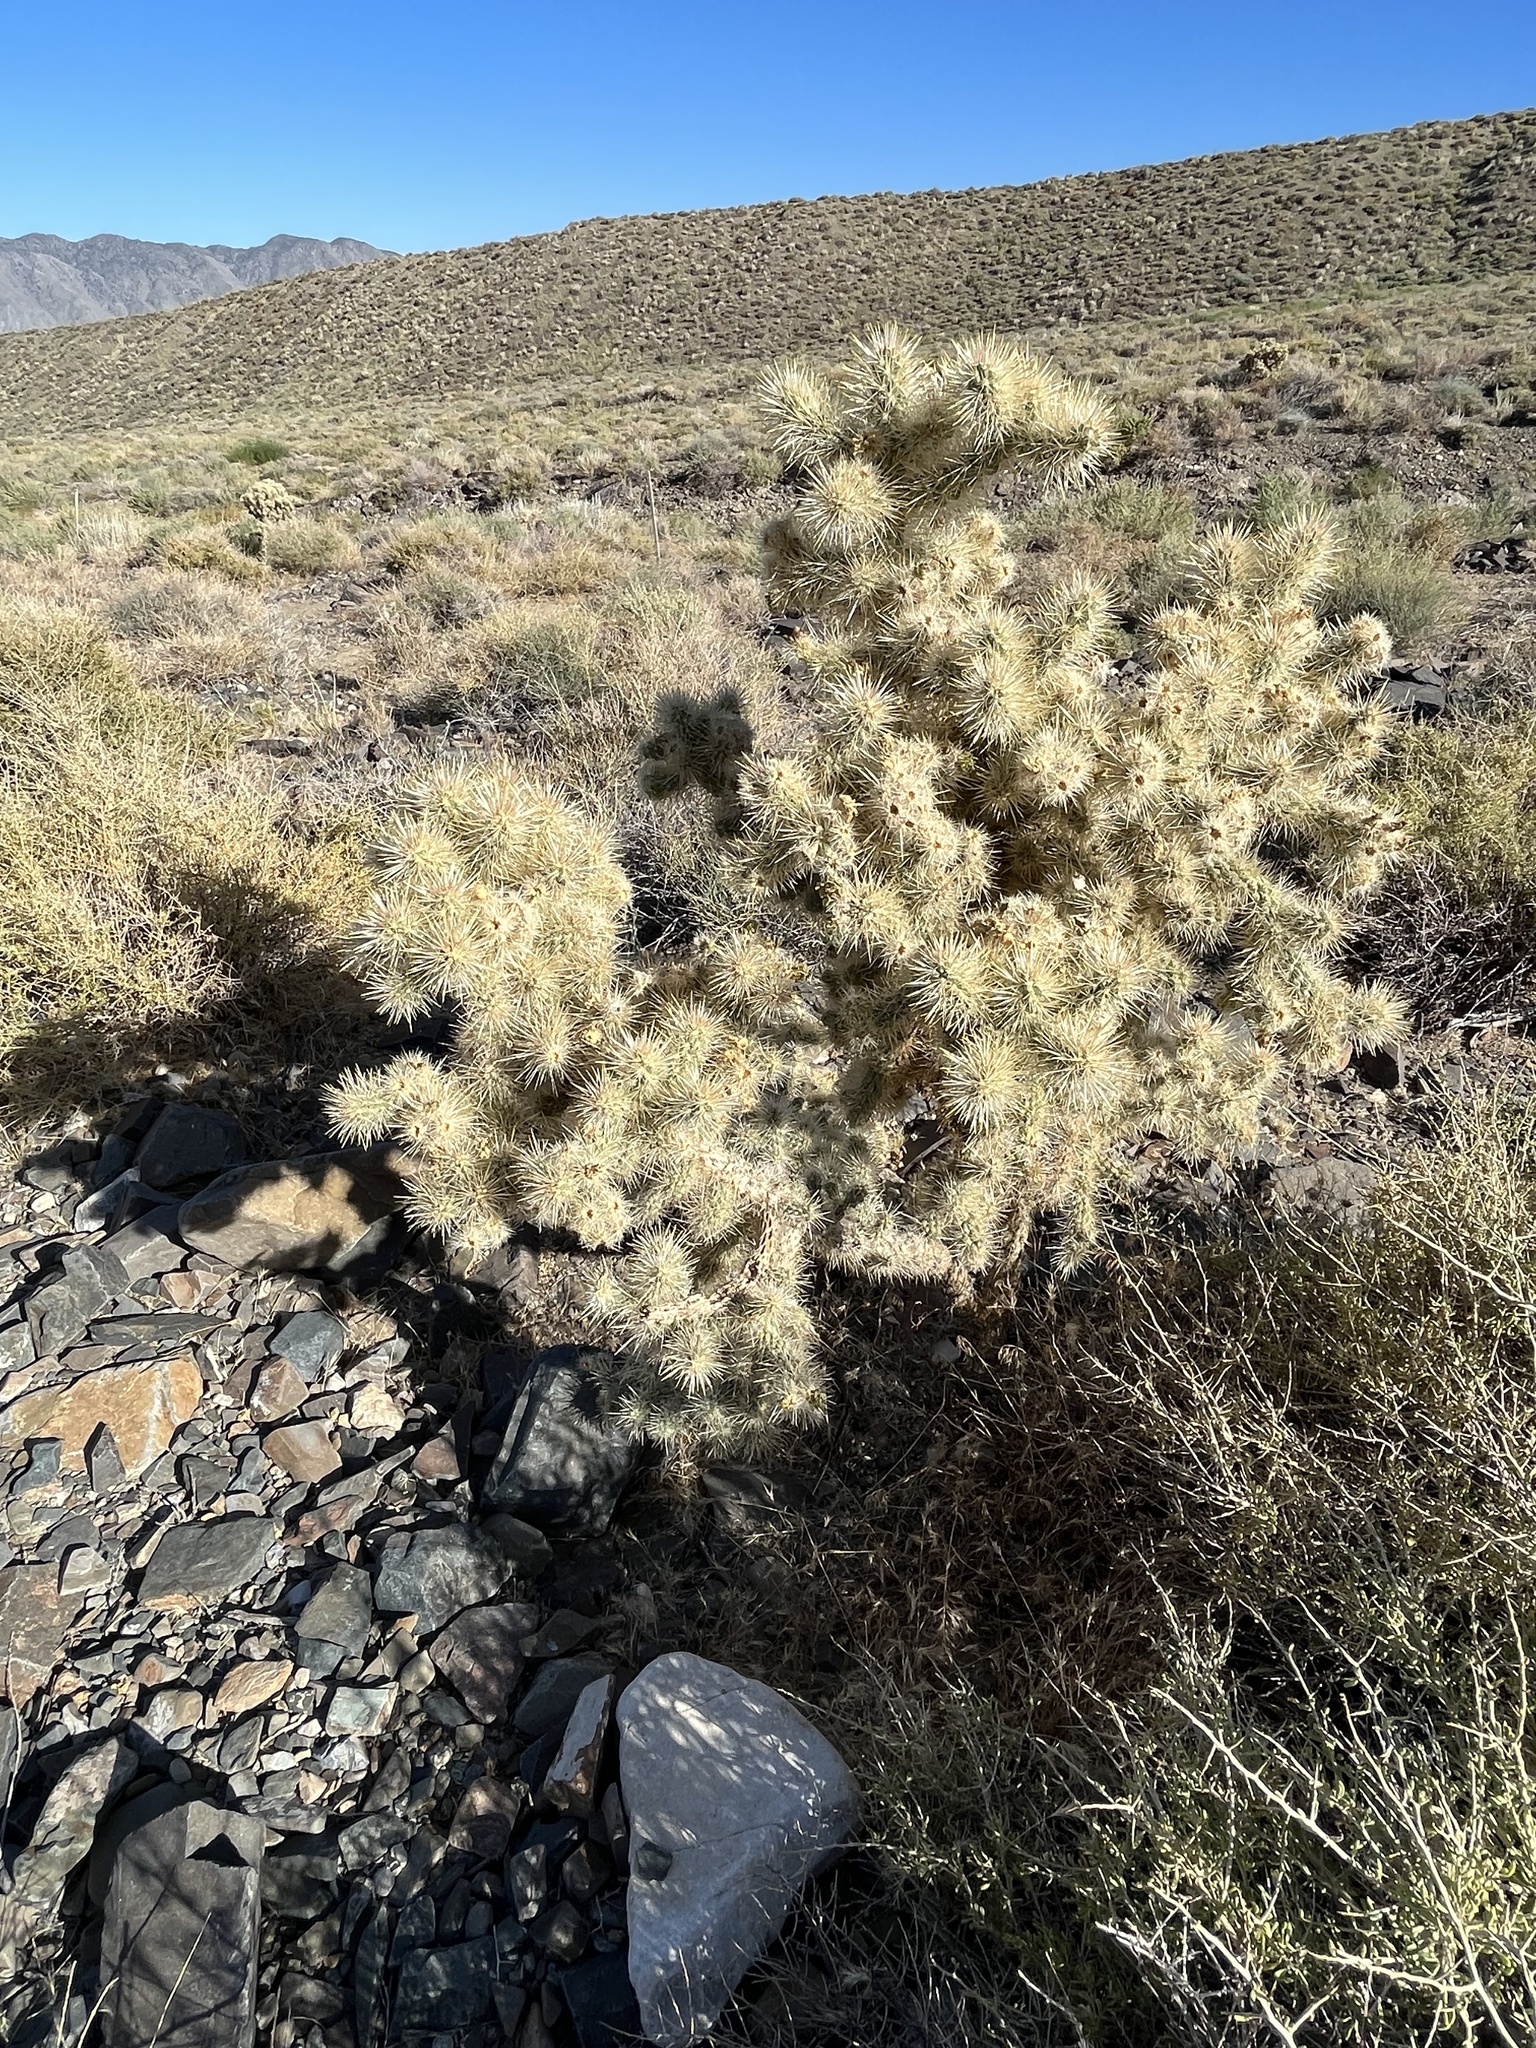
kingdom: Plantae
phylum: Tracheophyta
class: Magnoliopsida
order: Caryophyllales
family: Cactaceae
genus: Cylindropuntia
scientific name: Cylindropuntia echinocarpa
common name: Ground cholla
